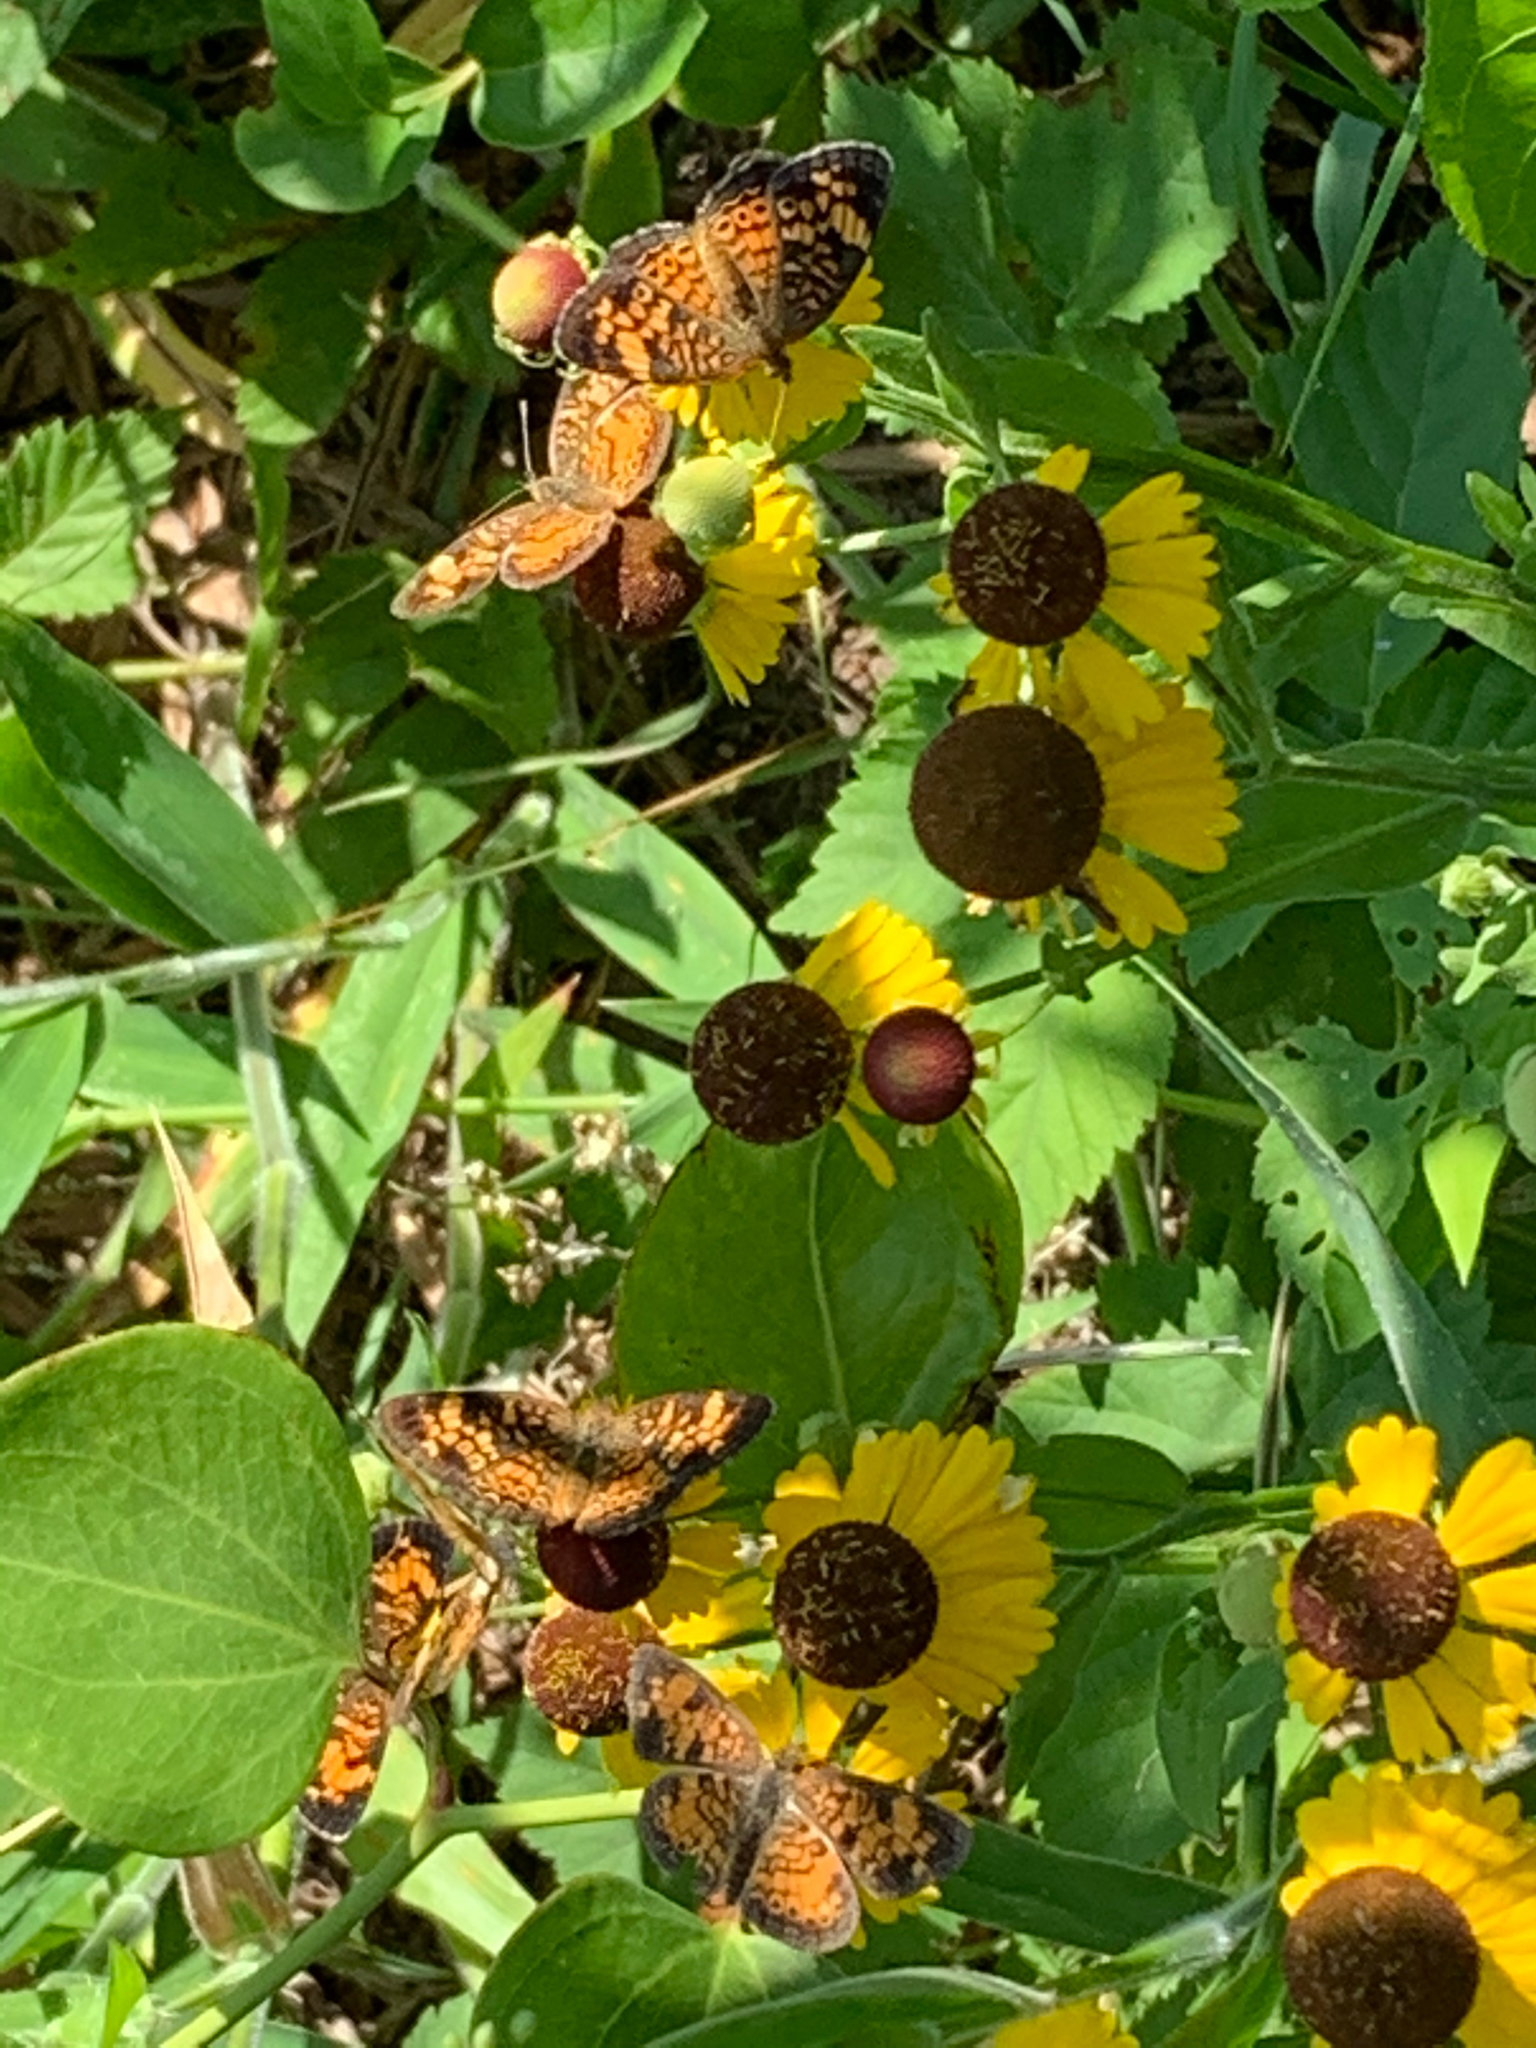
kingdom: Animalia
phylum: Arthropoda
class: Insecta
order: Lepidoptera
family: Nymphalidae
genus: Phyciodes
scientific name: Phyciodes tharos
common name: Pearl crescent
